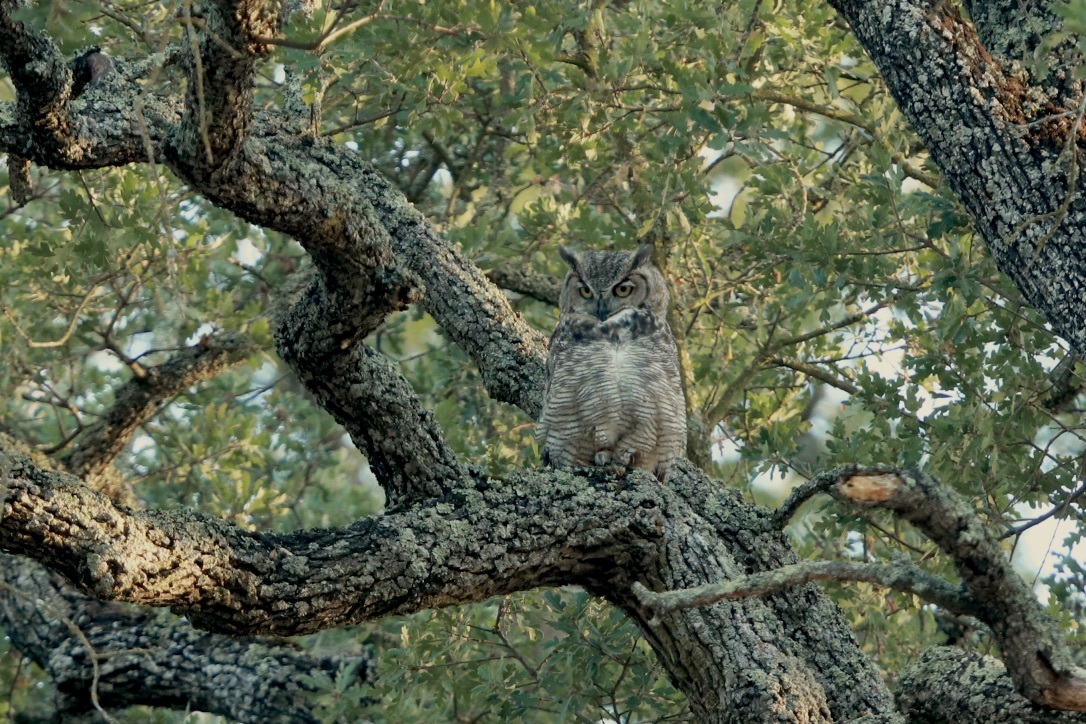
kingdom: Animalia
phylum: Chordata
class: Aves
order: Strigiformes
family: Strigidae
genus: Bubo
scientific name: Bubo virginianus
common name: Great horned owl
